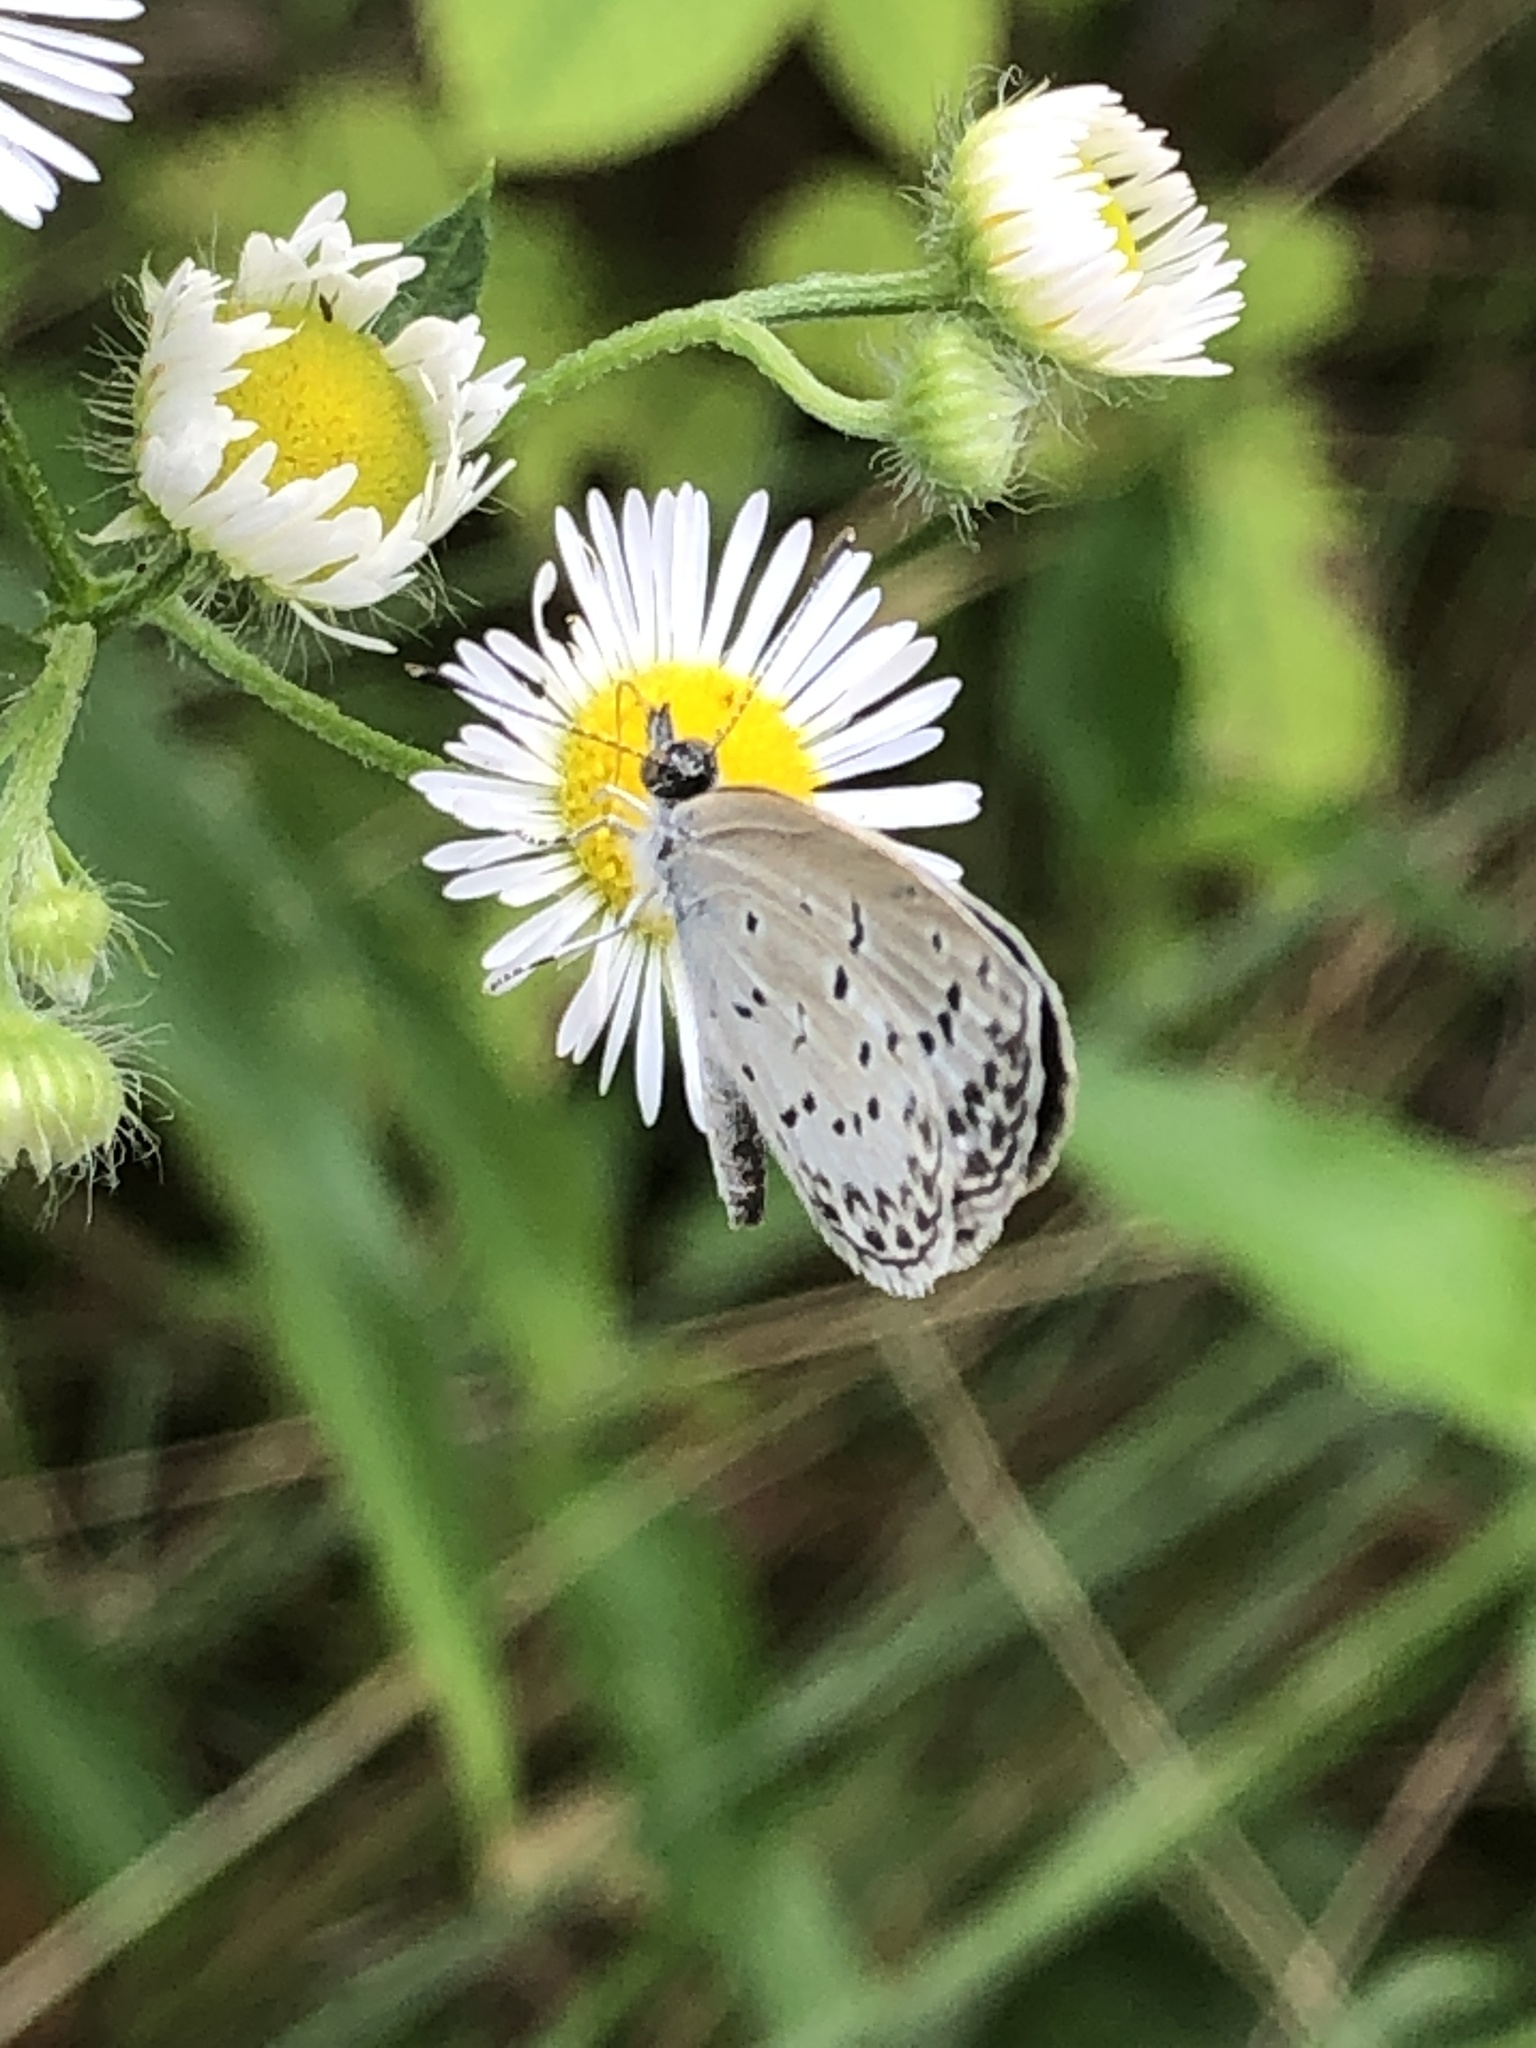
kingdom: Animalia
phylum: Arthropoda
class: Insecta
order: Lepidoptera
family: Lycaenidae
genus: Pseudozizeeria
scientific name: Pseudozizeeria maha
